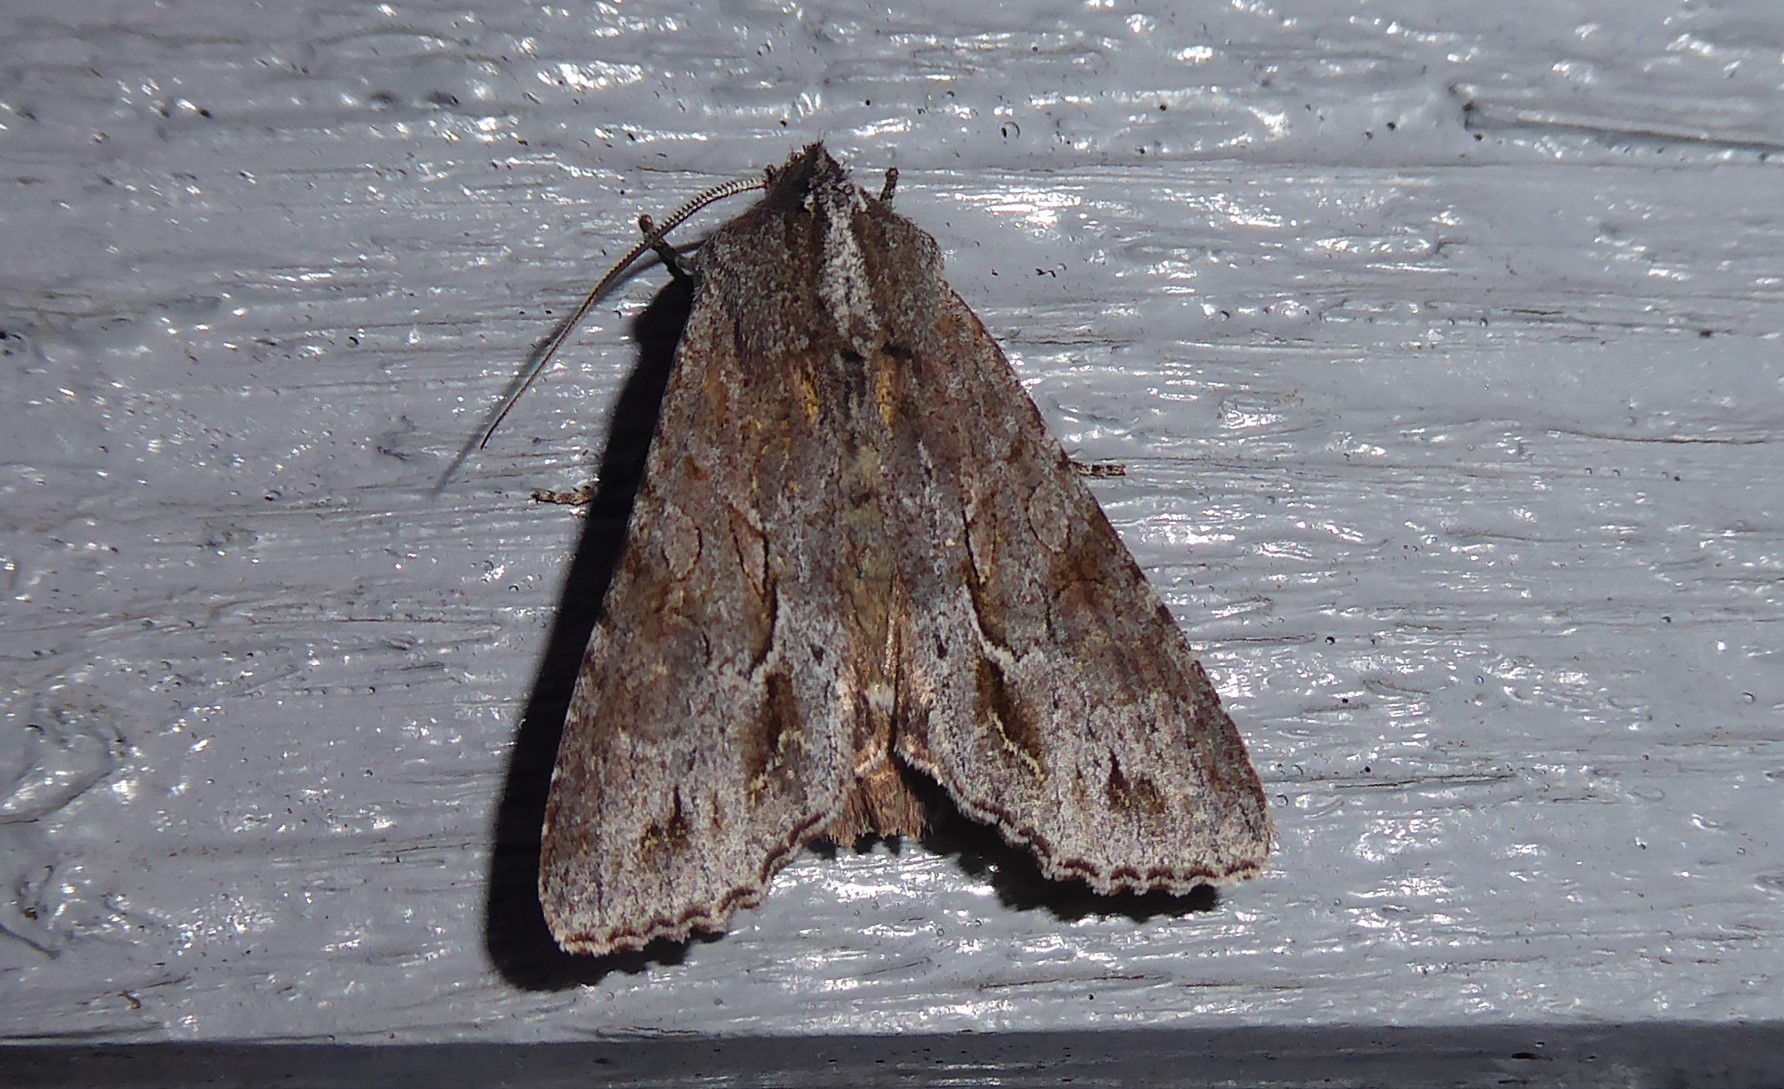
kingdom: Animalia
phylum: Arthropoda
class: Insecta
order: Lepidoptera
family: Noctuidae
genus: Ichneutica
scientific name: Ichneutica
